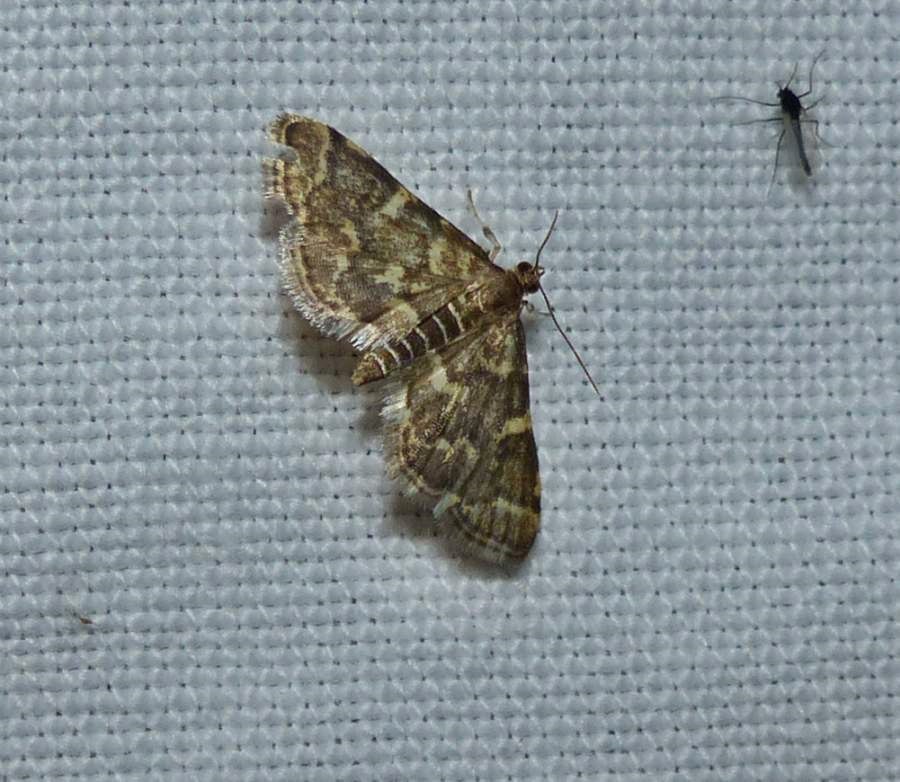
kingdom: Animalia
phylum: Arthropoda
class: Insecta
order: Lepidoptera
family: Crambidae
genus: Anageshna
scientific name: Anageshna primordialis
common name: Yellow-spotted webworm moth
